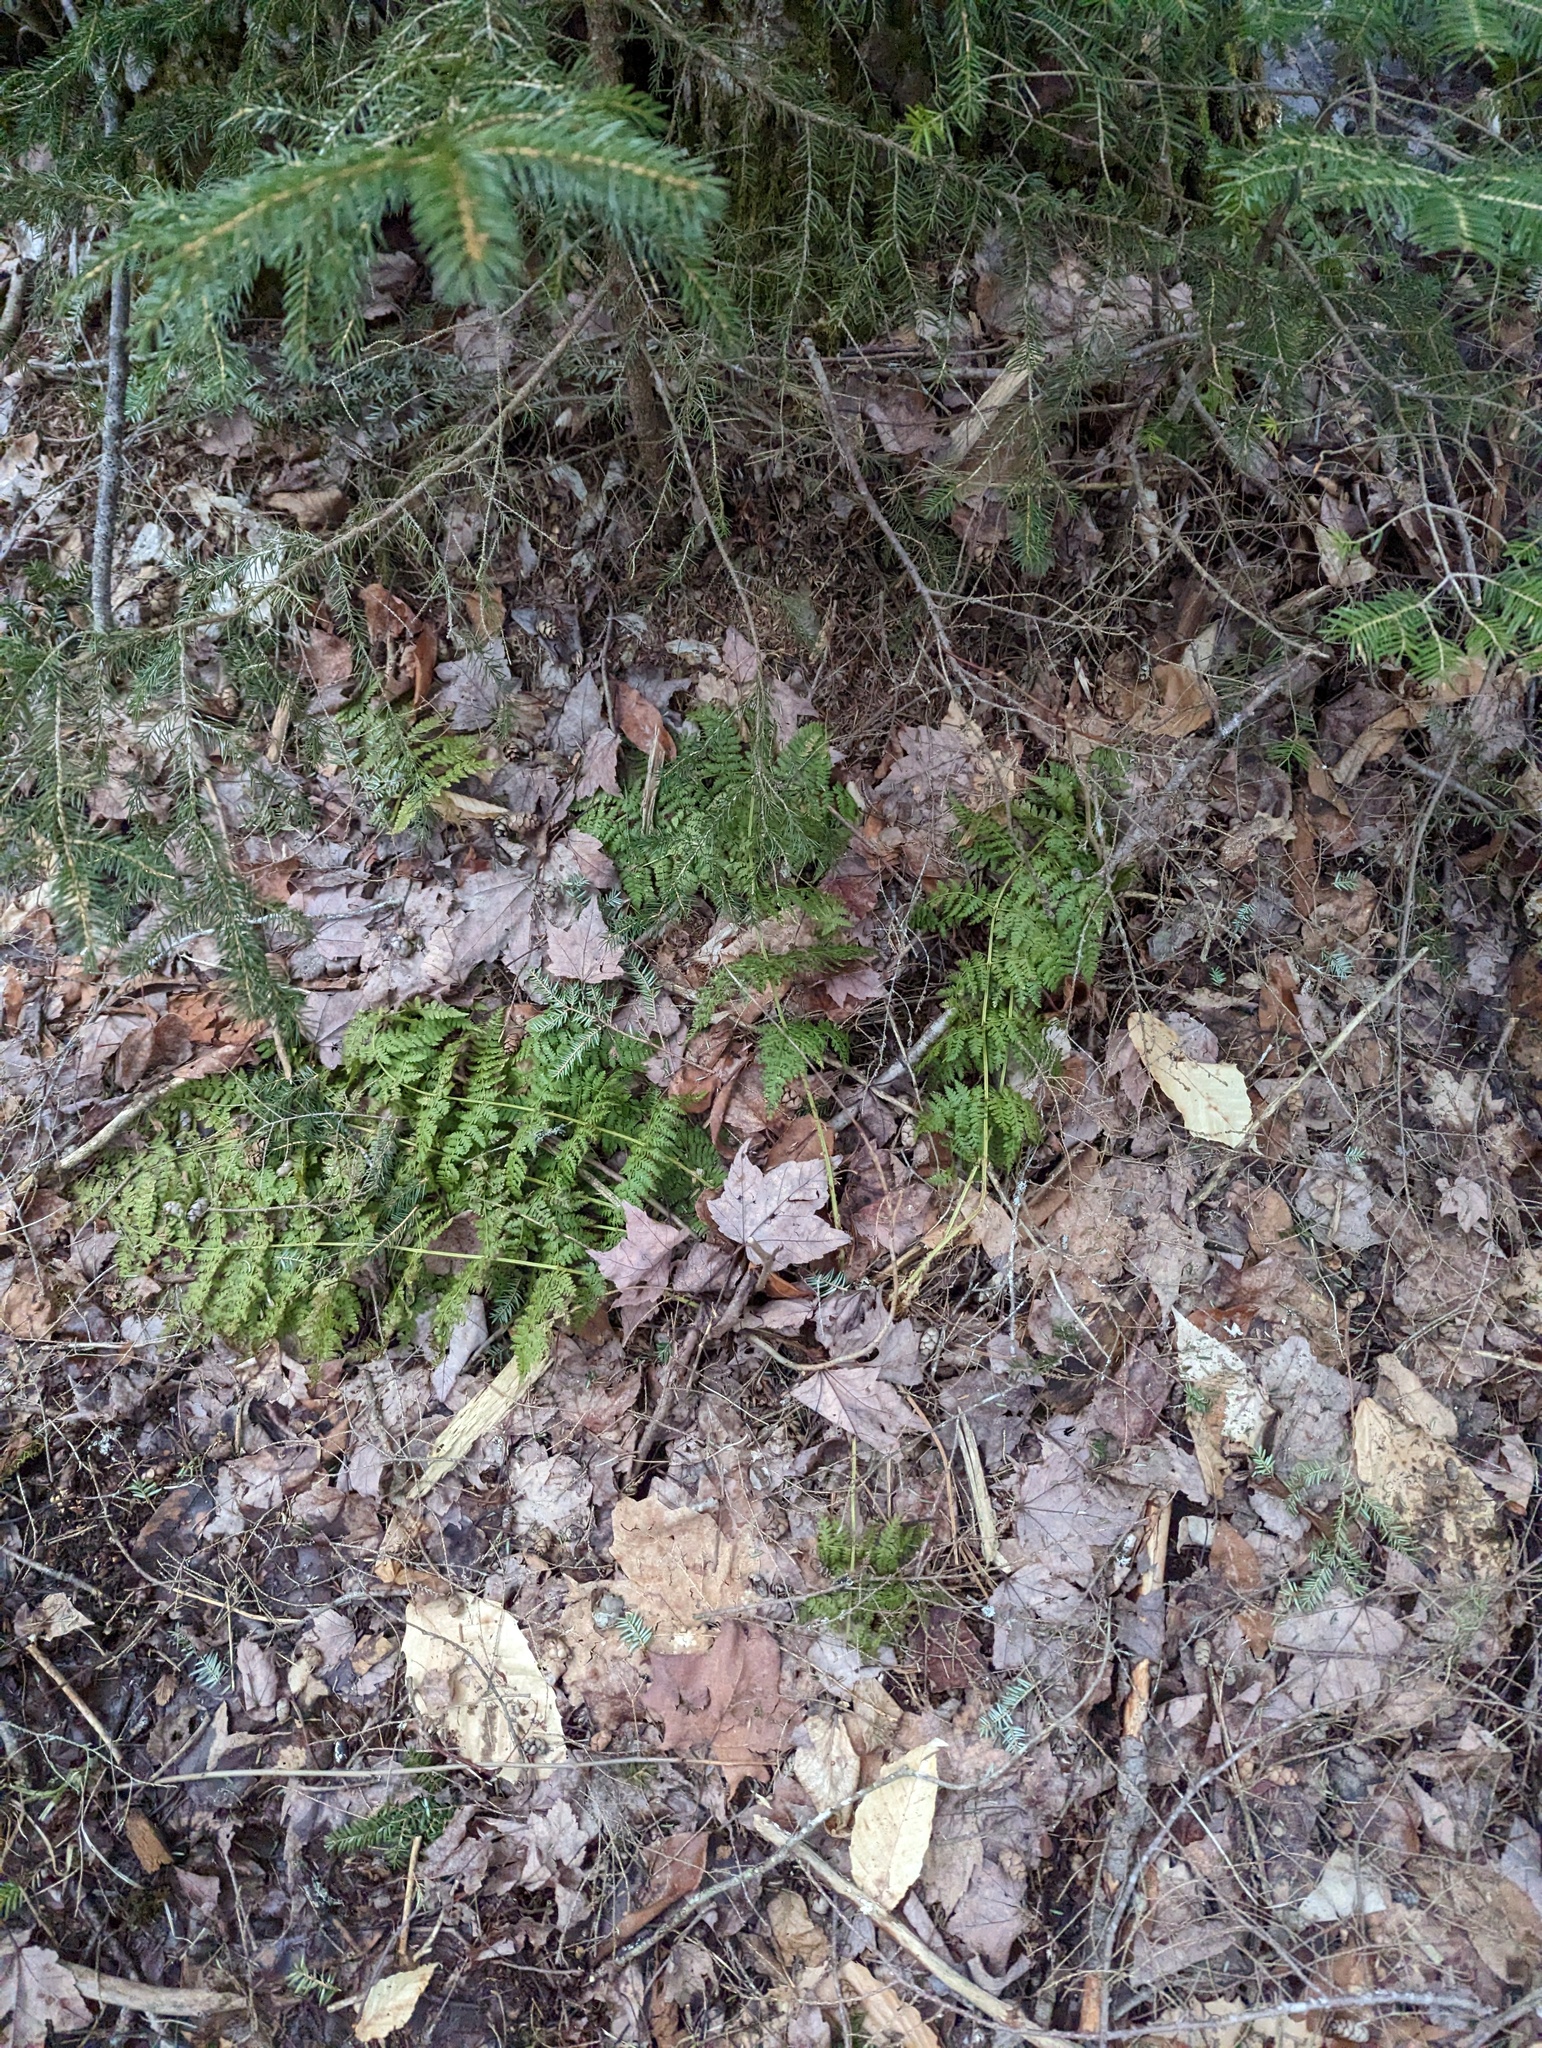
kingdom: Plantae
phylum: Tracheophyta
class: Polypodiopsida
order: Polypodiales
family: Dryopteridaceae
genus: Dryopteris
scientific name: Dryopteris intermedia
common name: Evergreen wood fern
